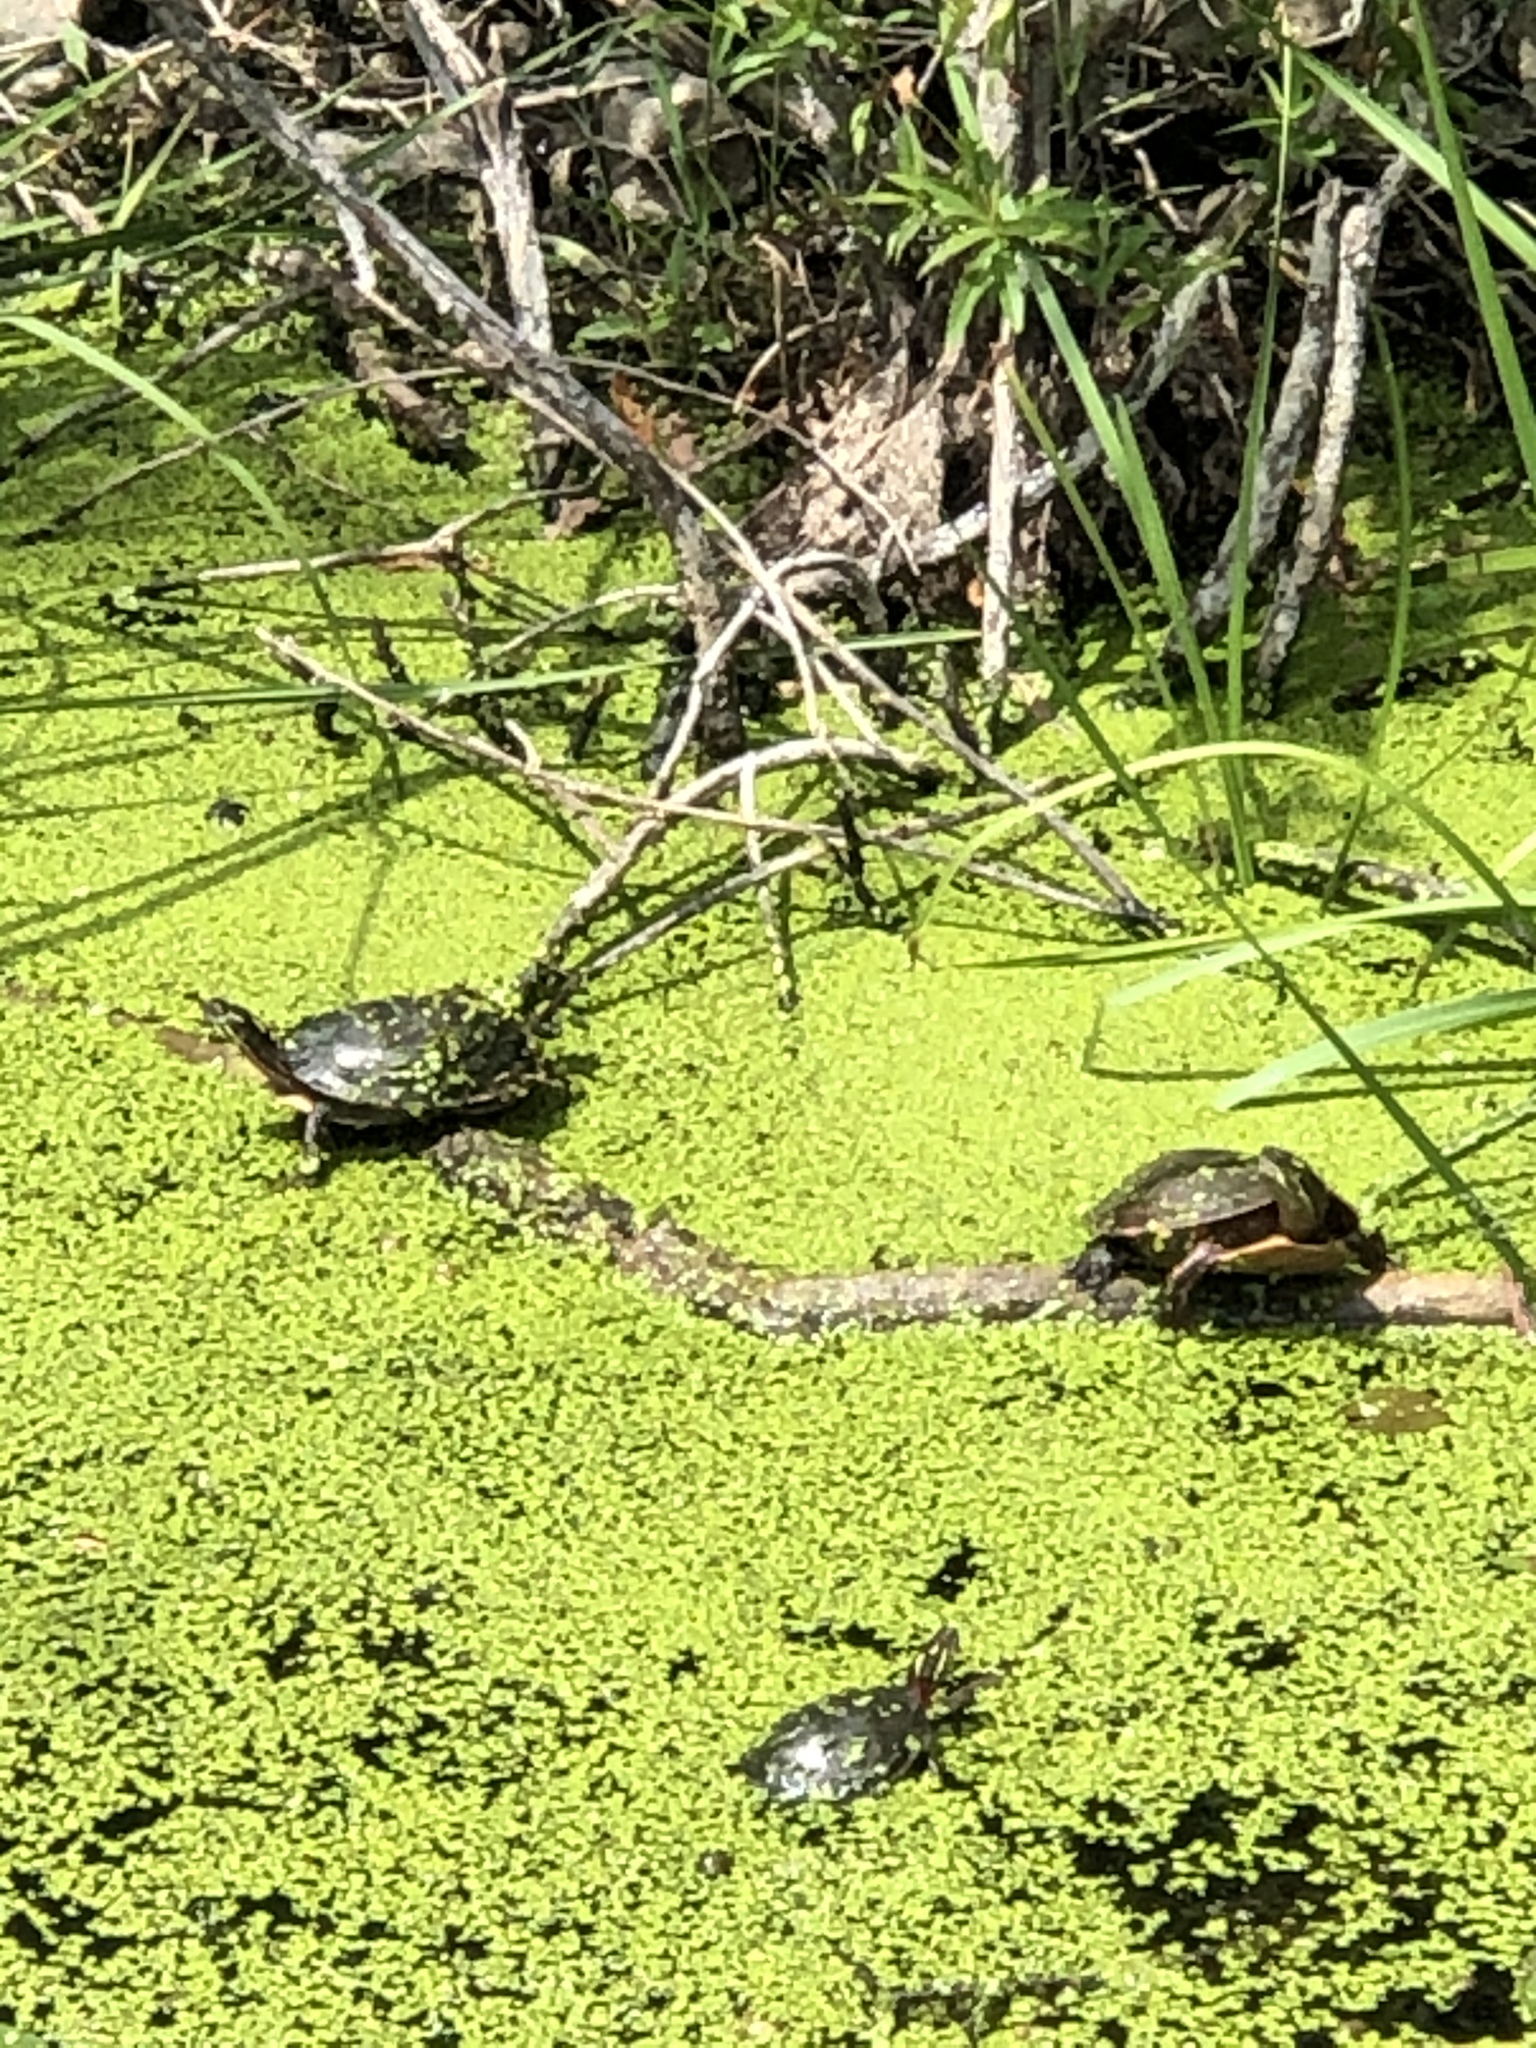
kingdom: Animalia
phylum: Chordata
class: Testudines
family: Emydidae
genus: Chrysemys
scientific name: Chrysemys picta
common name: Painted turtle
